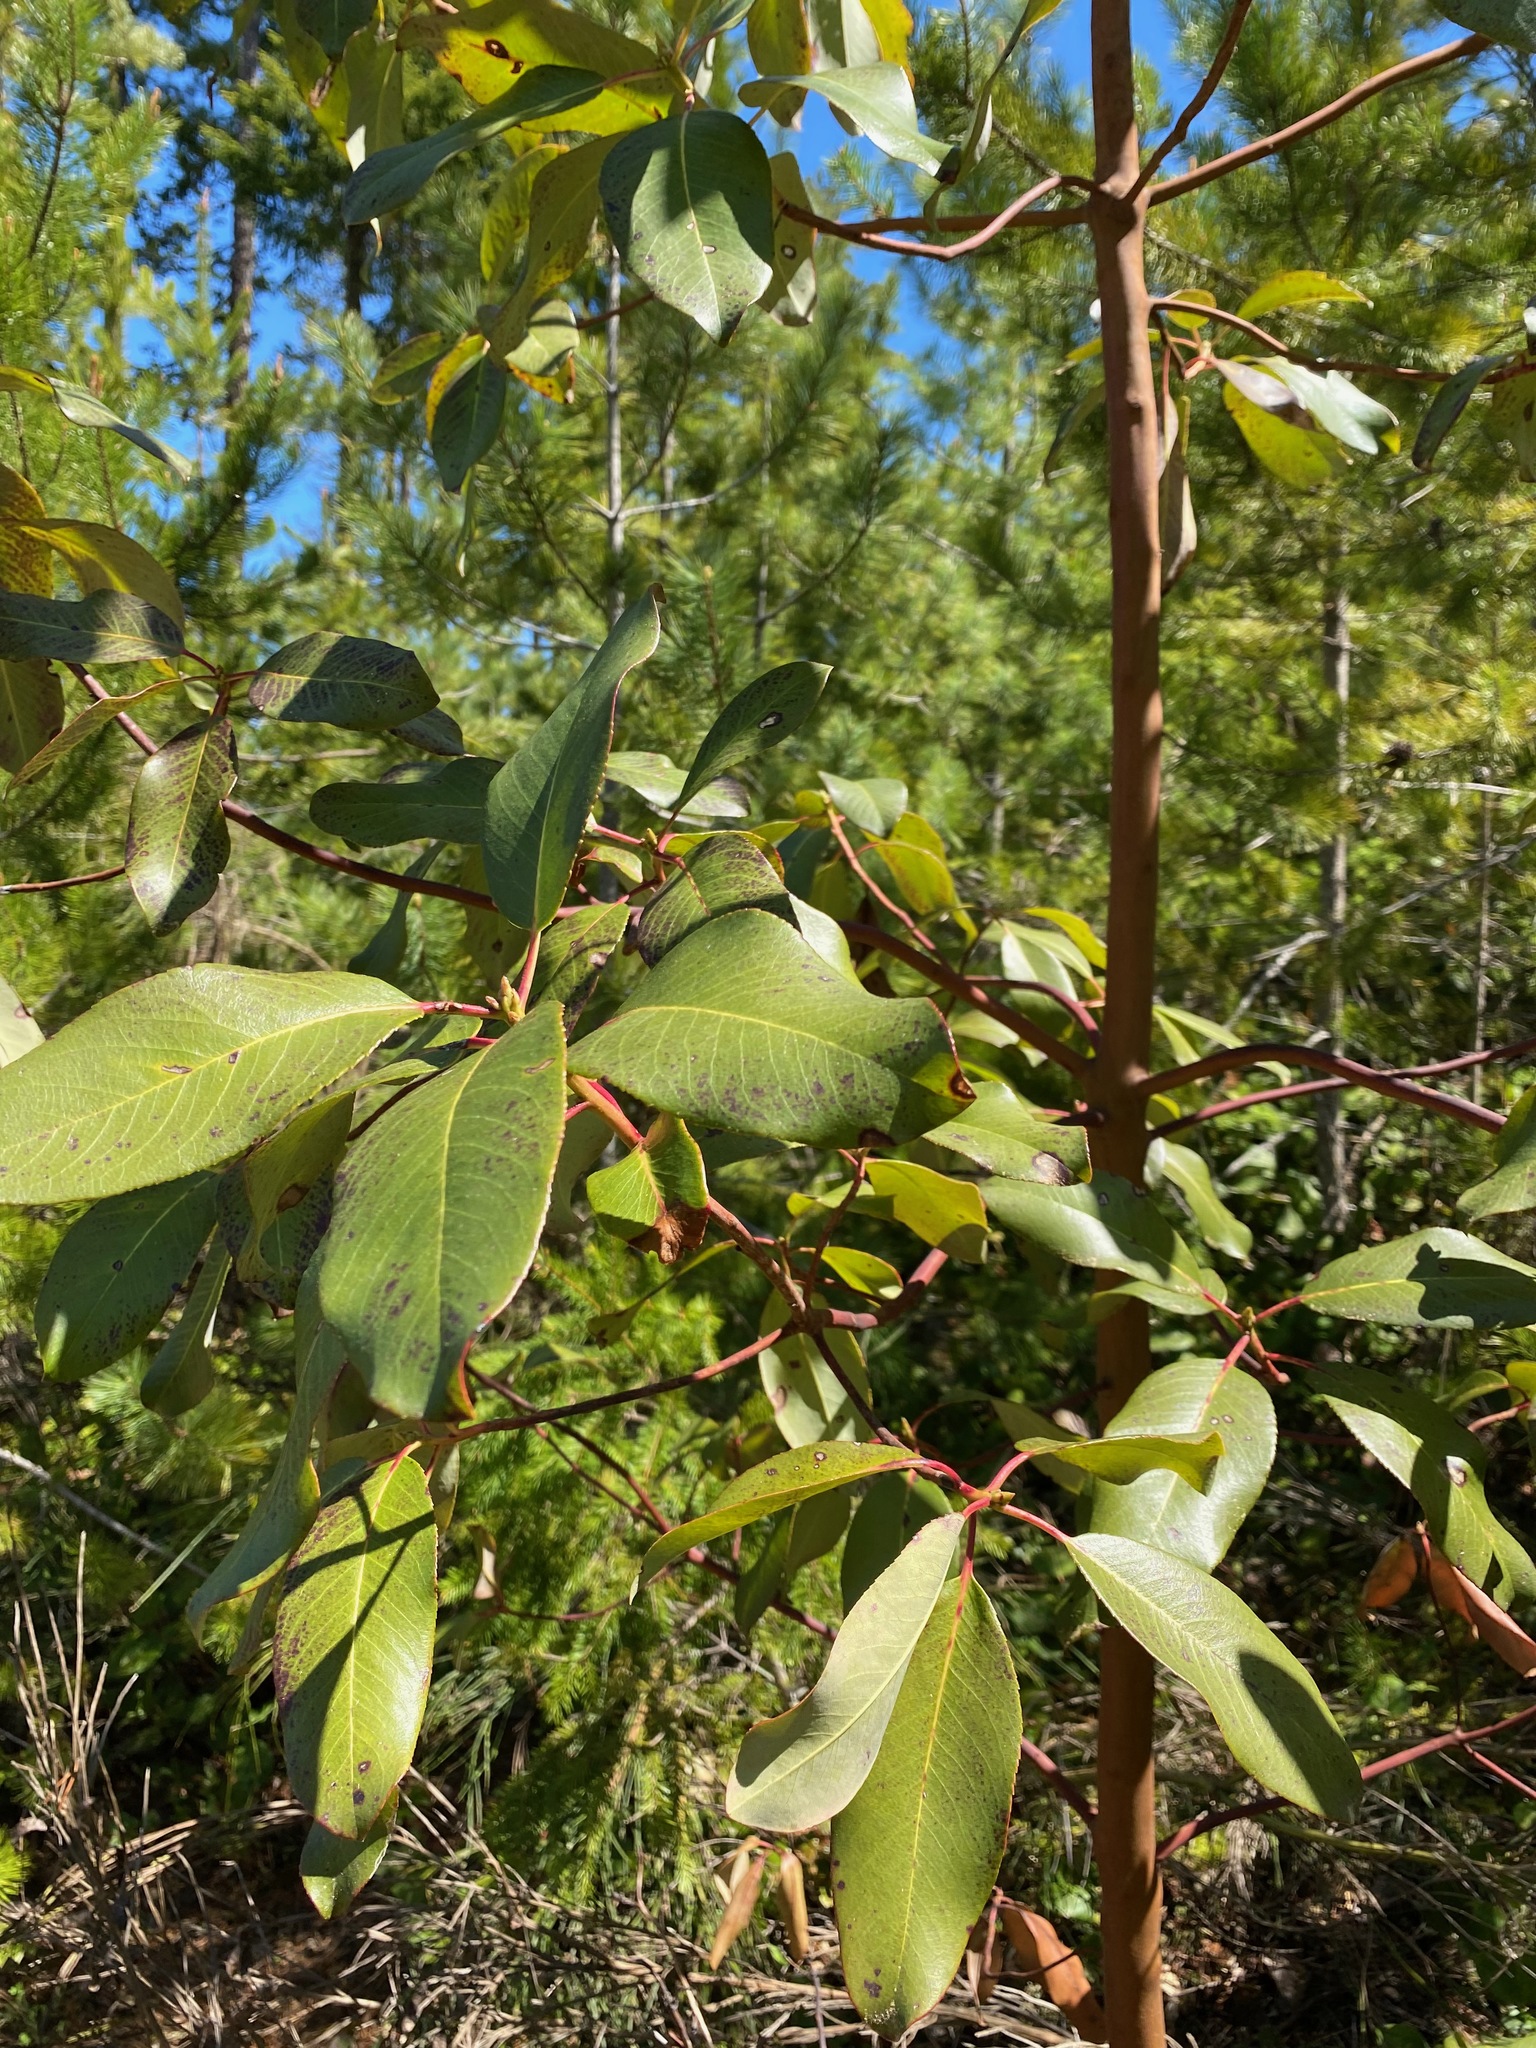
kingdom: Plantae
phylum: Tracheophyta
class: Magnoliopsida
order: Ericales
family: Ericaceae
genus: Arbutus
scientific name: Arbutus menziesii
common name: Pacific madrone
